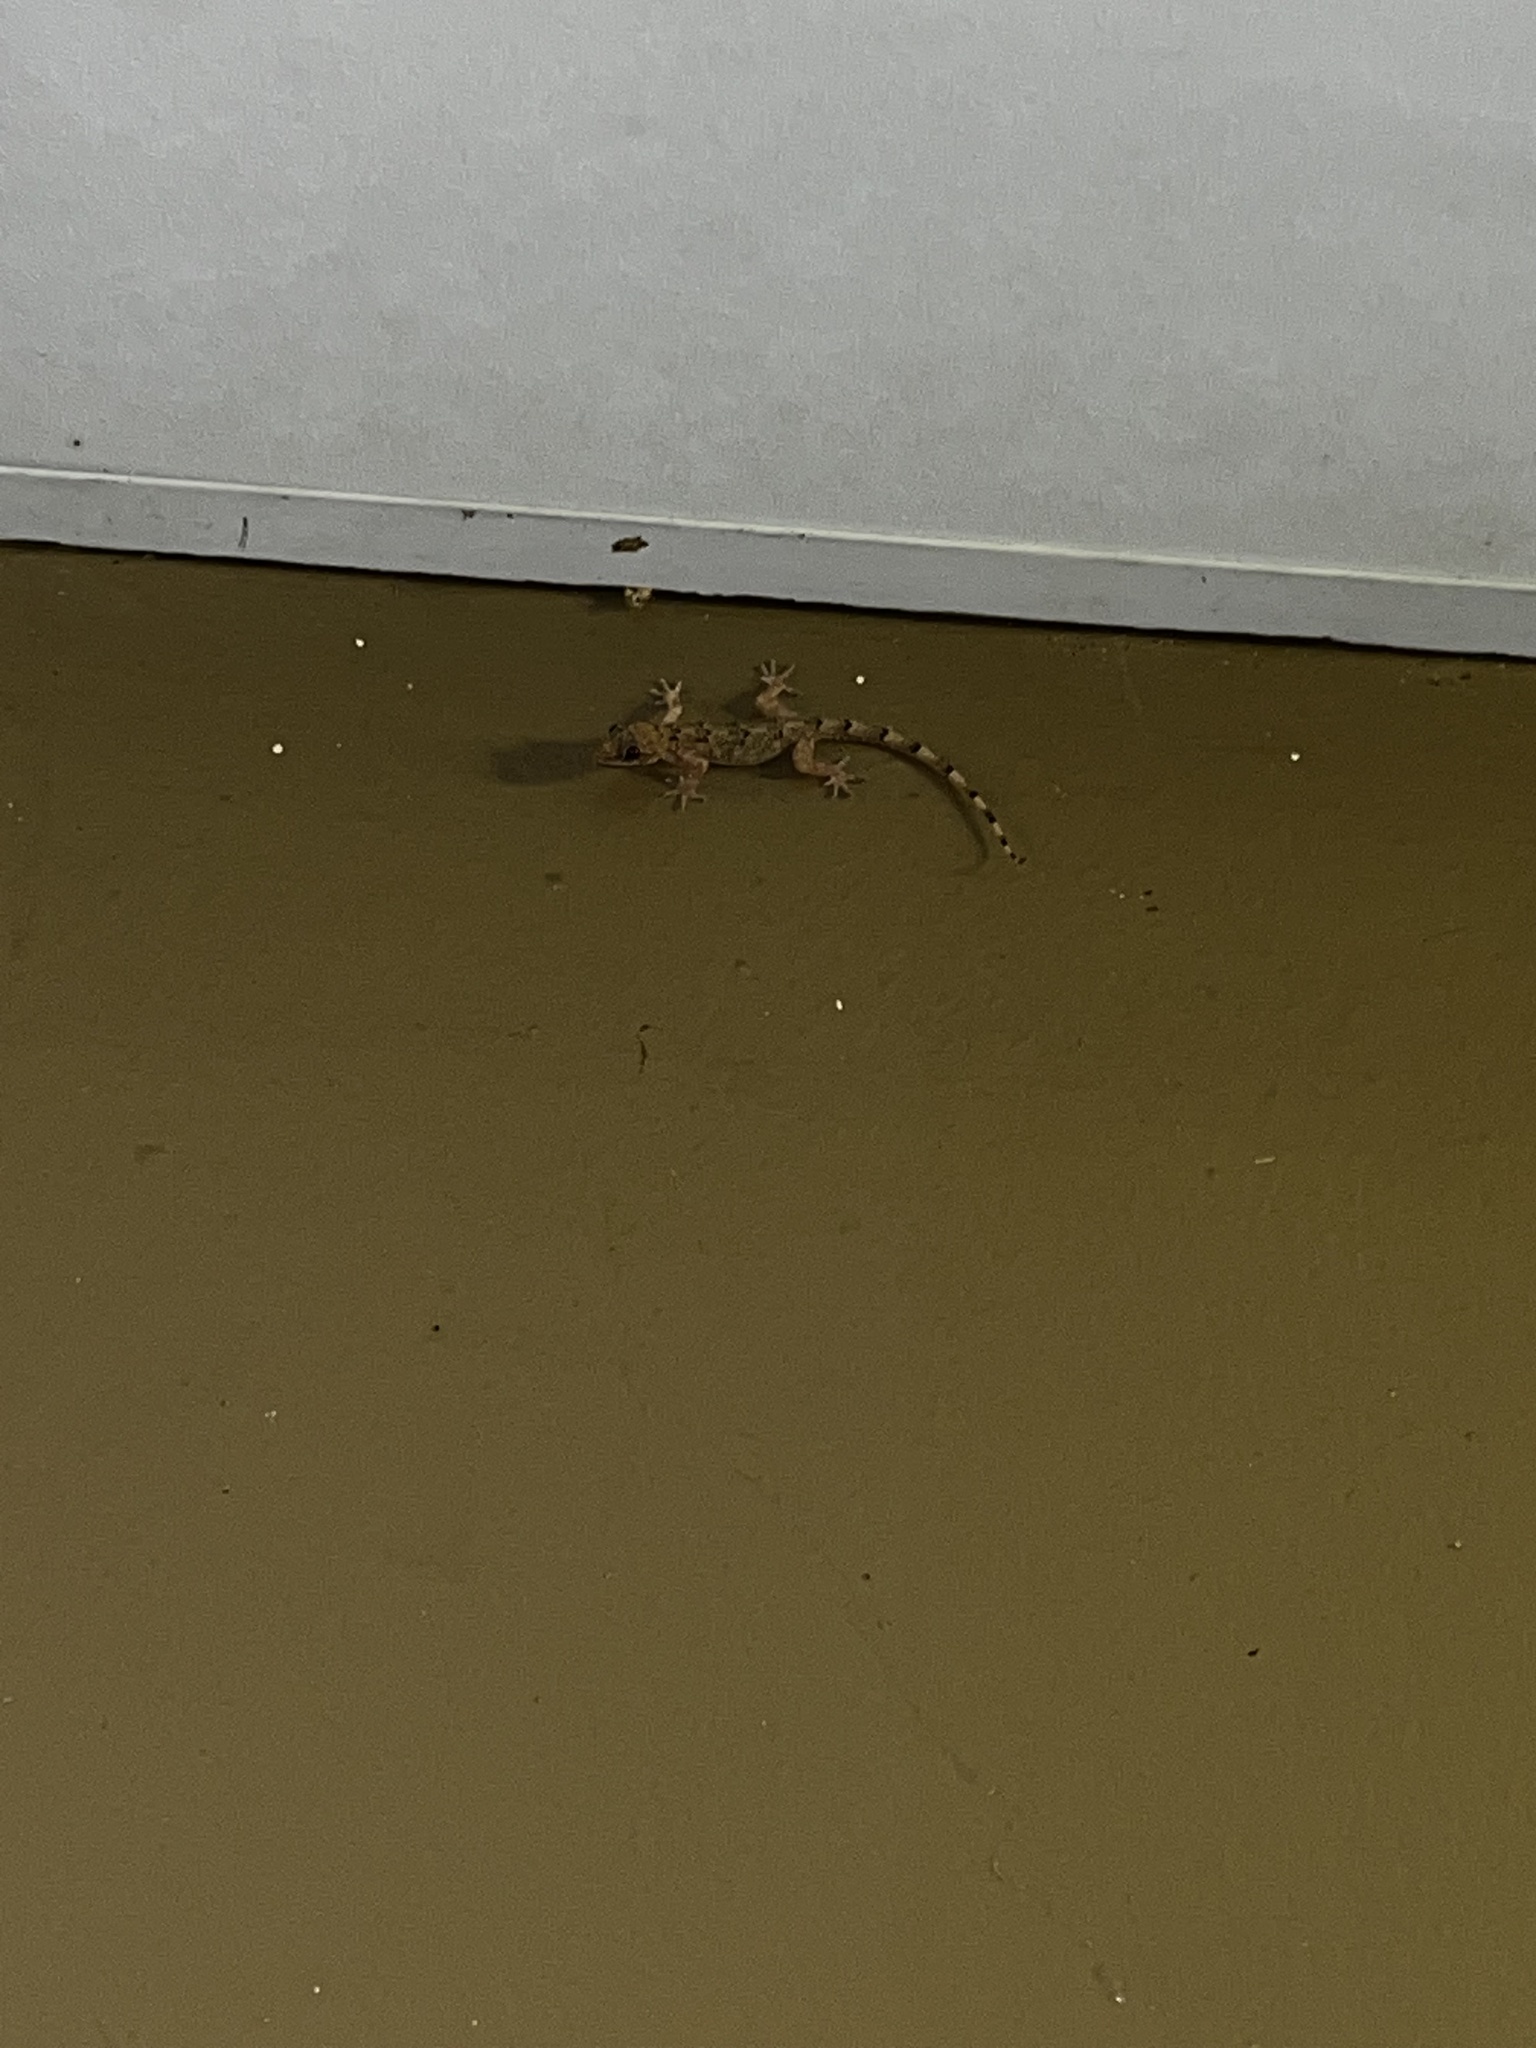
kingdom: Animalia
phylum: Chordata
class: Squamata
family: Gekkonidae
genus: Hemidactylus
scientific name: Hemidactylus mabouia
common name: House gecko
